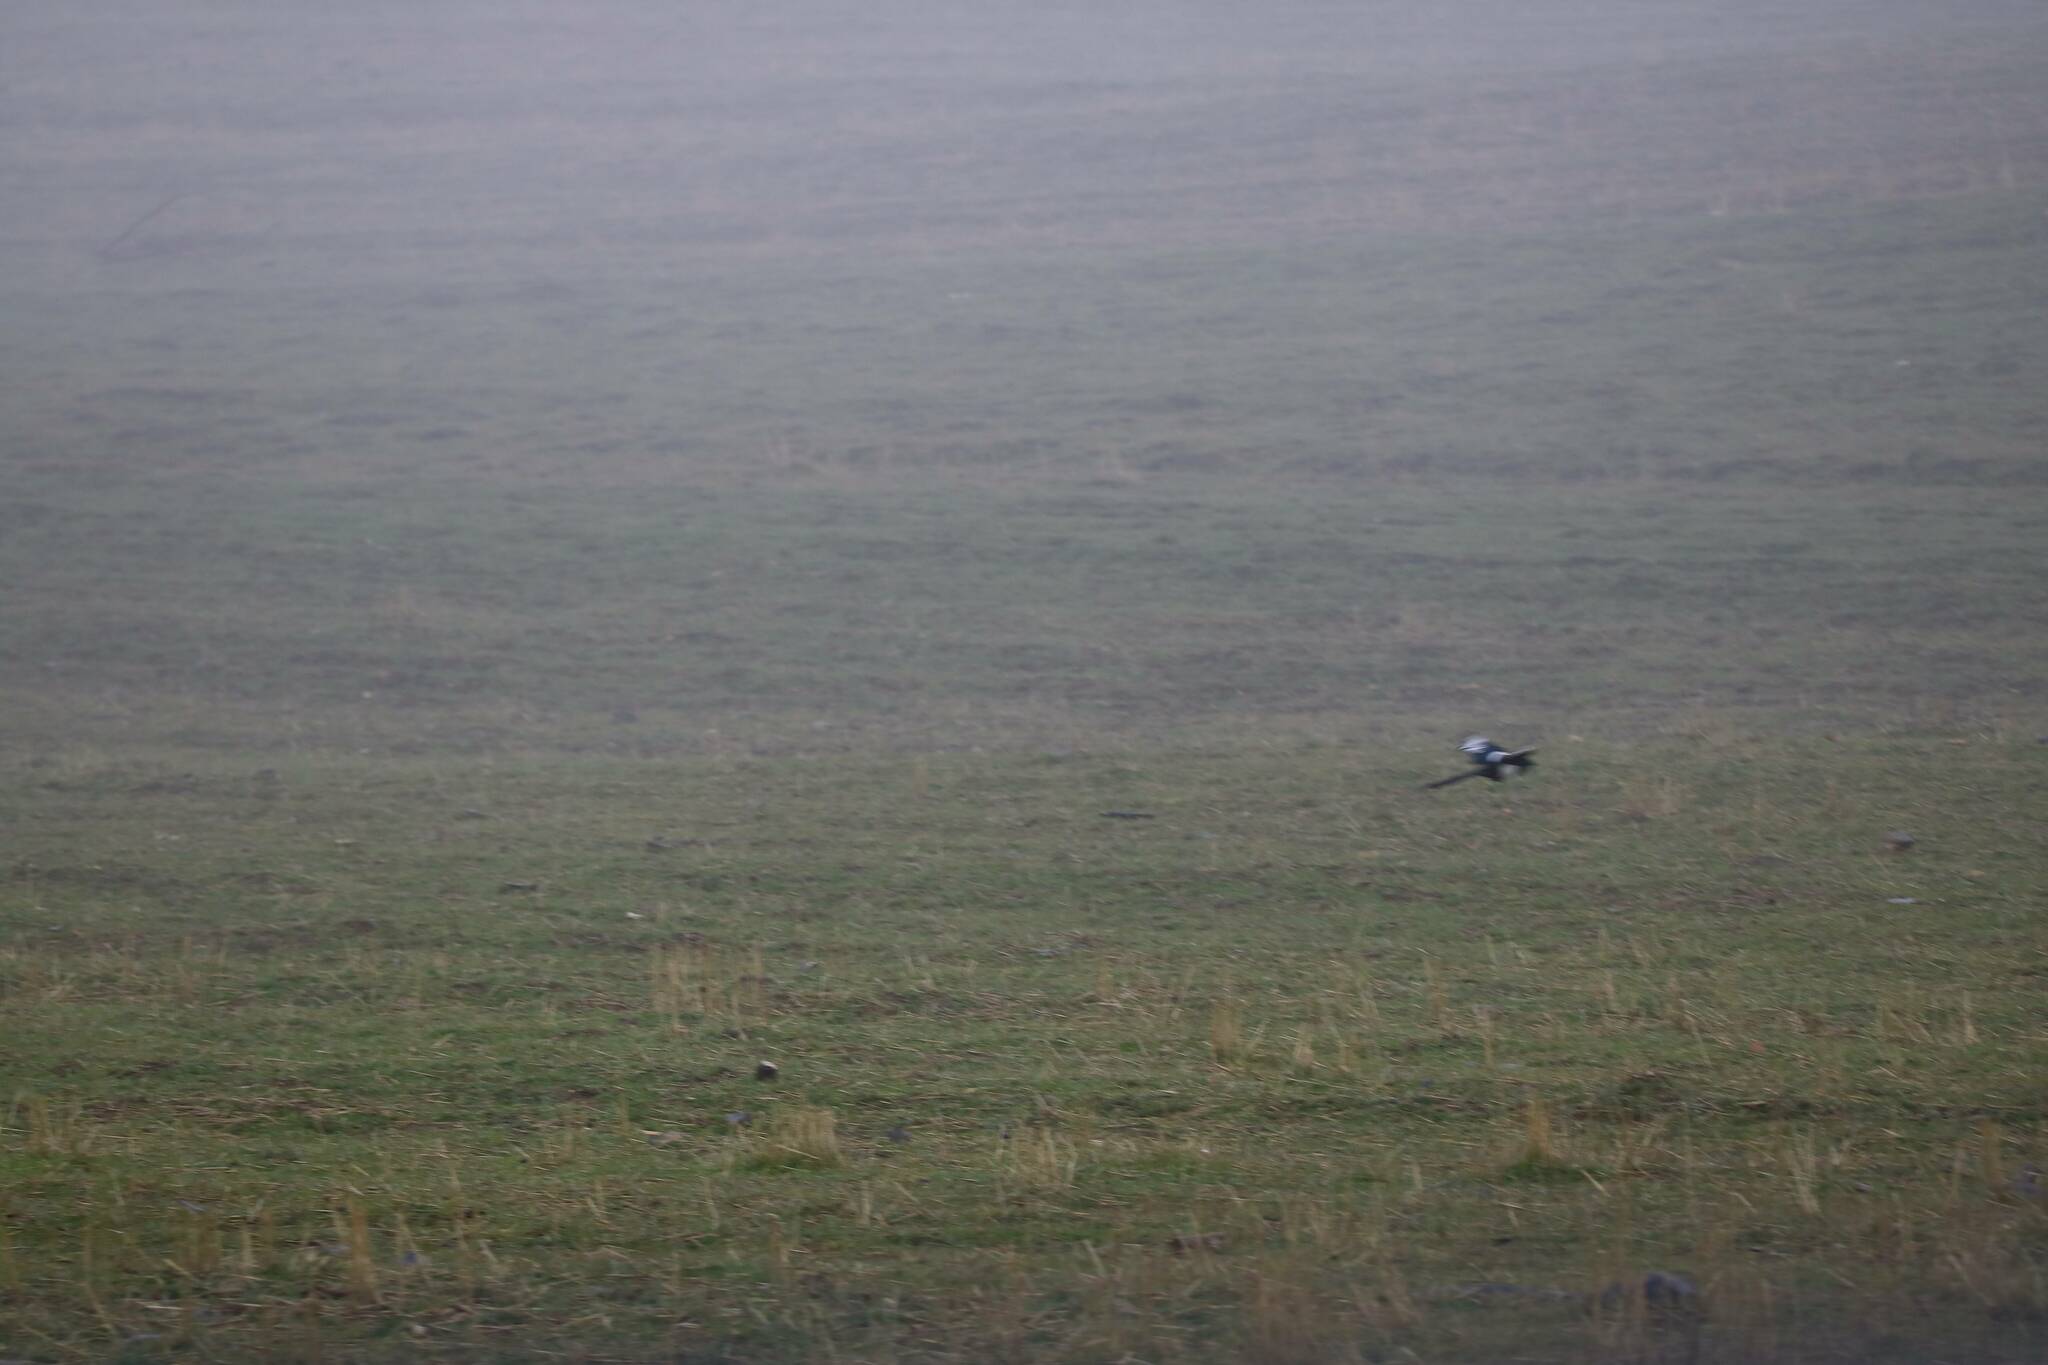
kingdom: Animalia
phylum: Chordata
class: Aves
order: Passeriformes
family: Corvidae
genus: Pica
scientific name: Pica mauritanica
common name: Maghreb magpie
